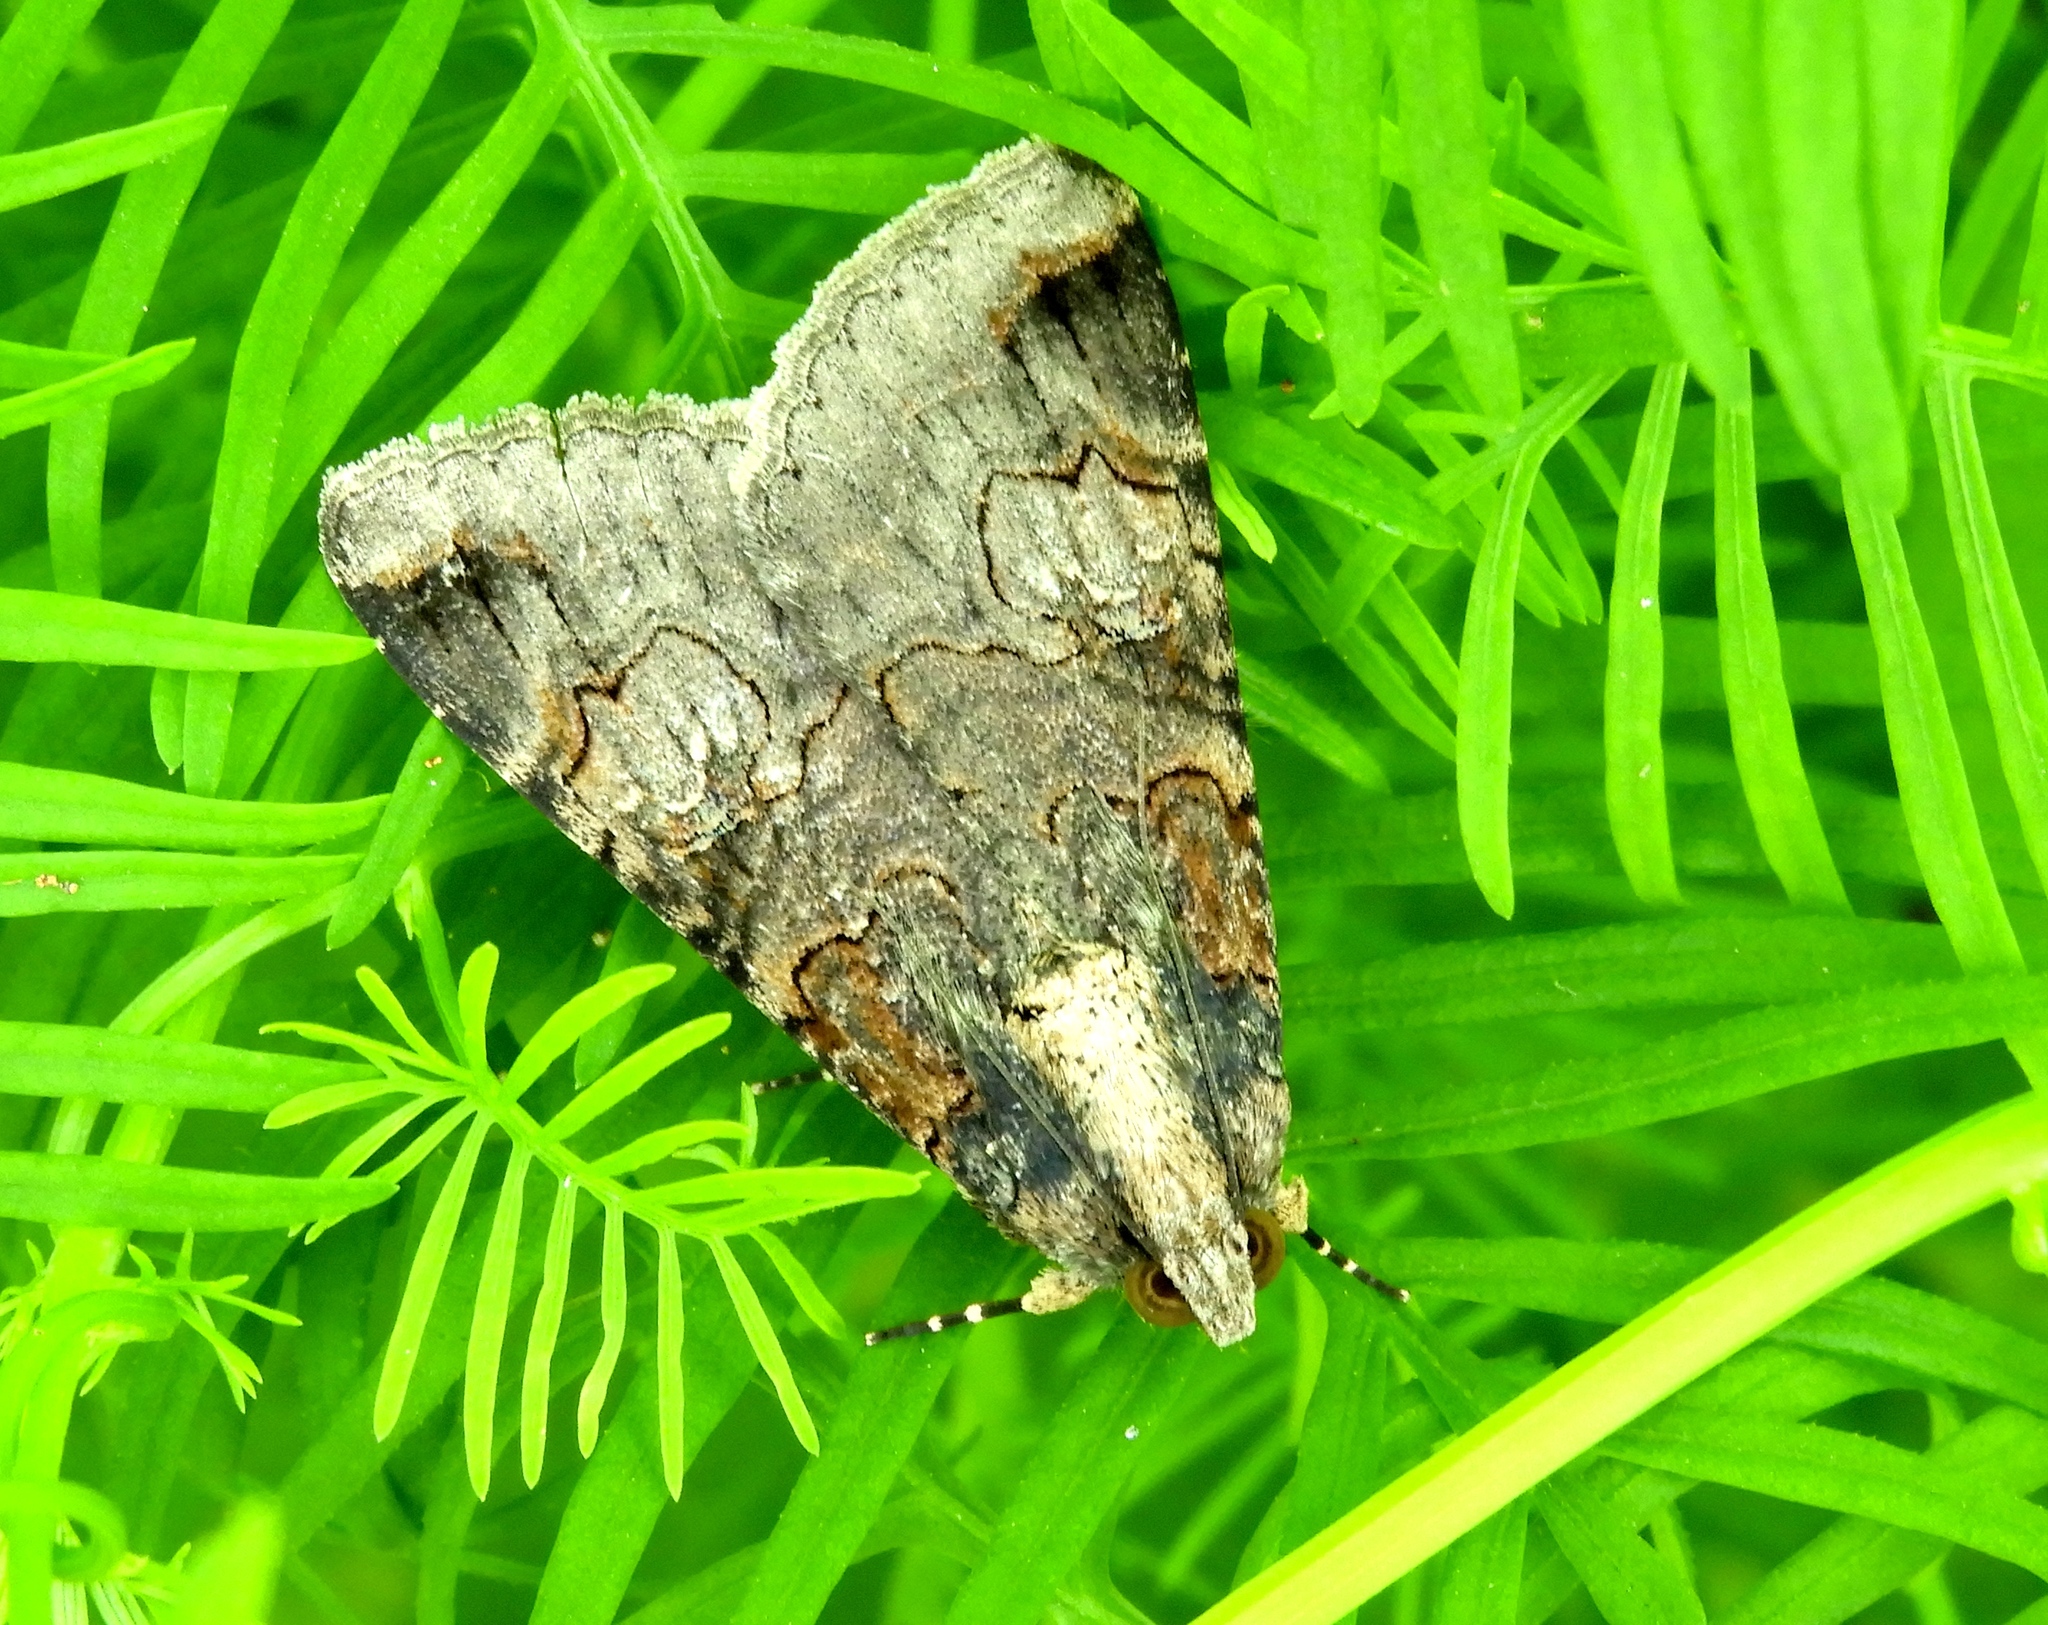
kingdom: Animalia
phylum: Arthropoda
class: Insecta
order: Lepidoptera
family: Erebidae
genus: Melipotis
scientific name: Melipotis
